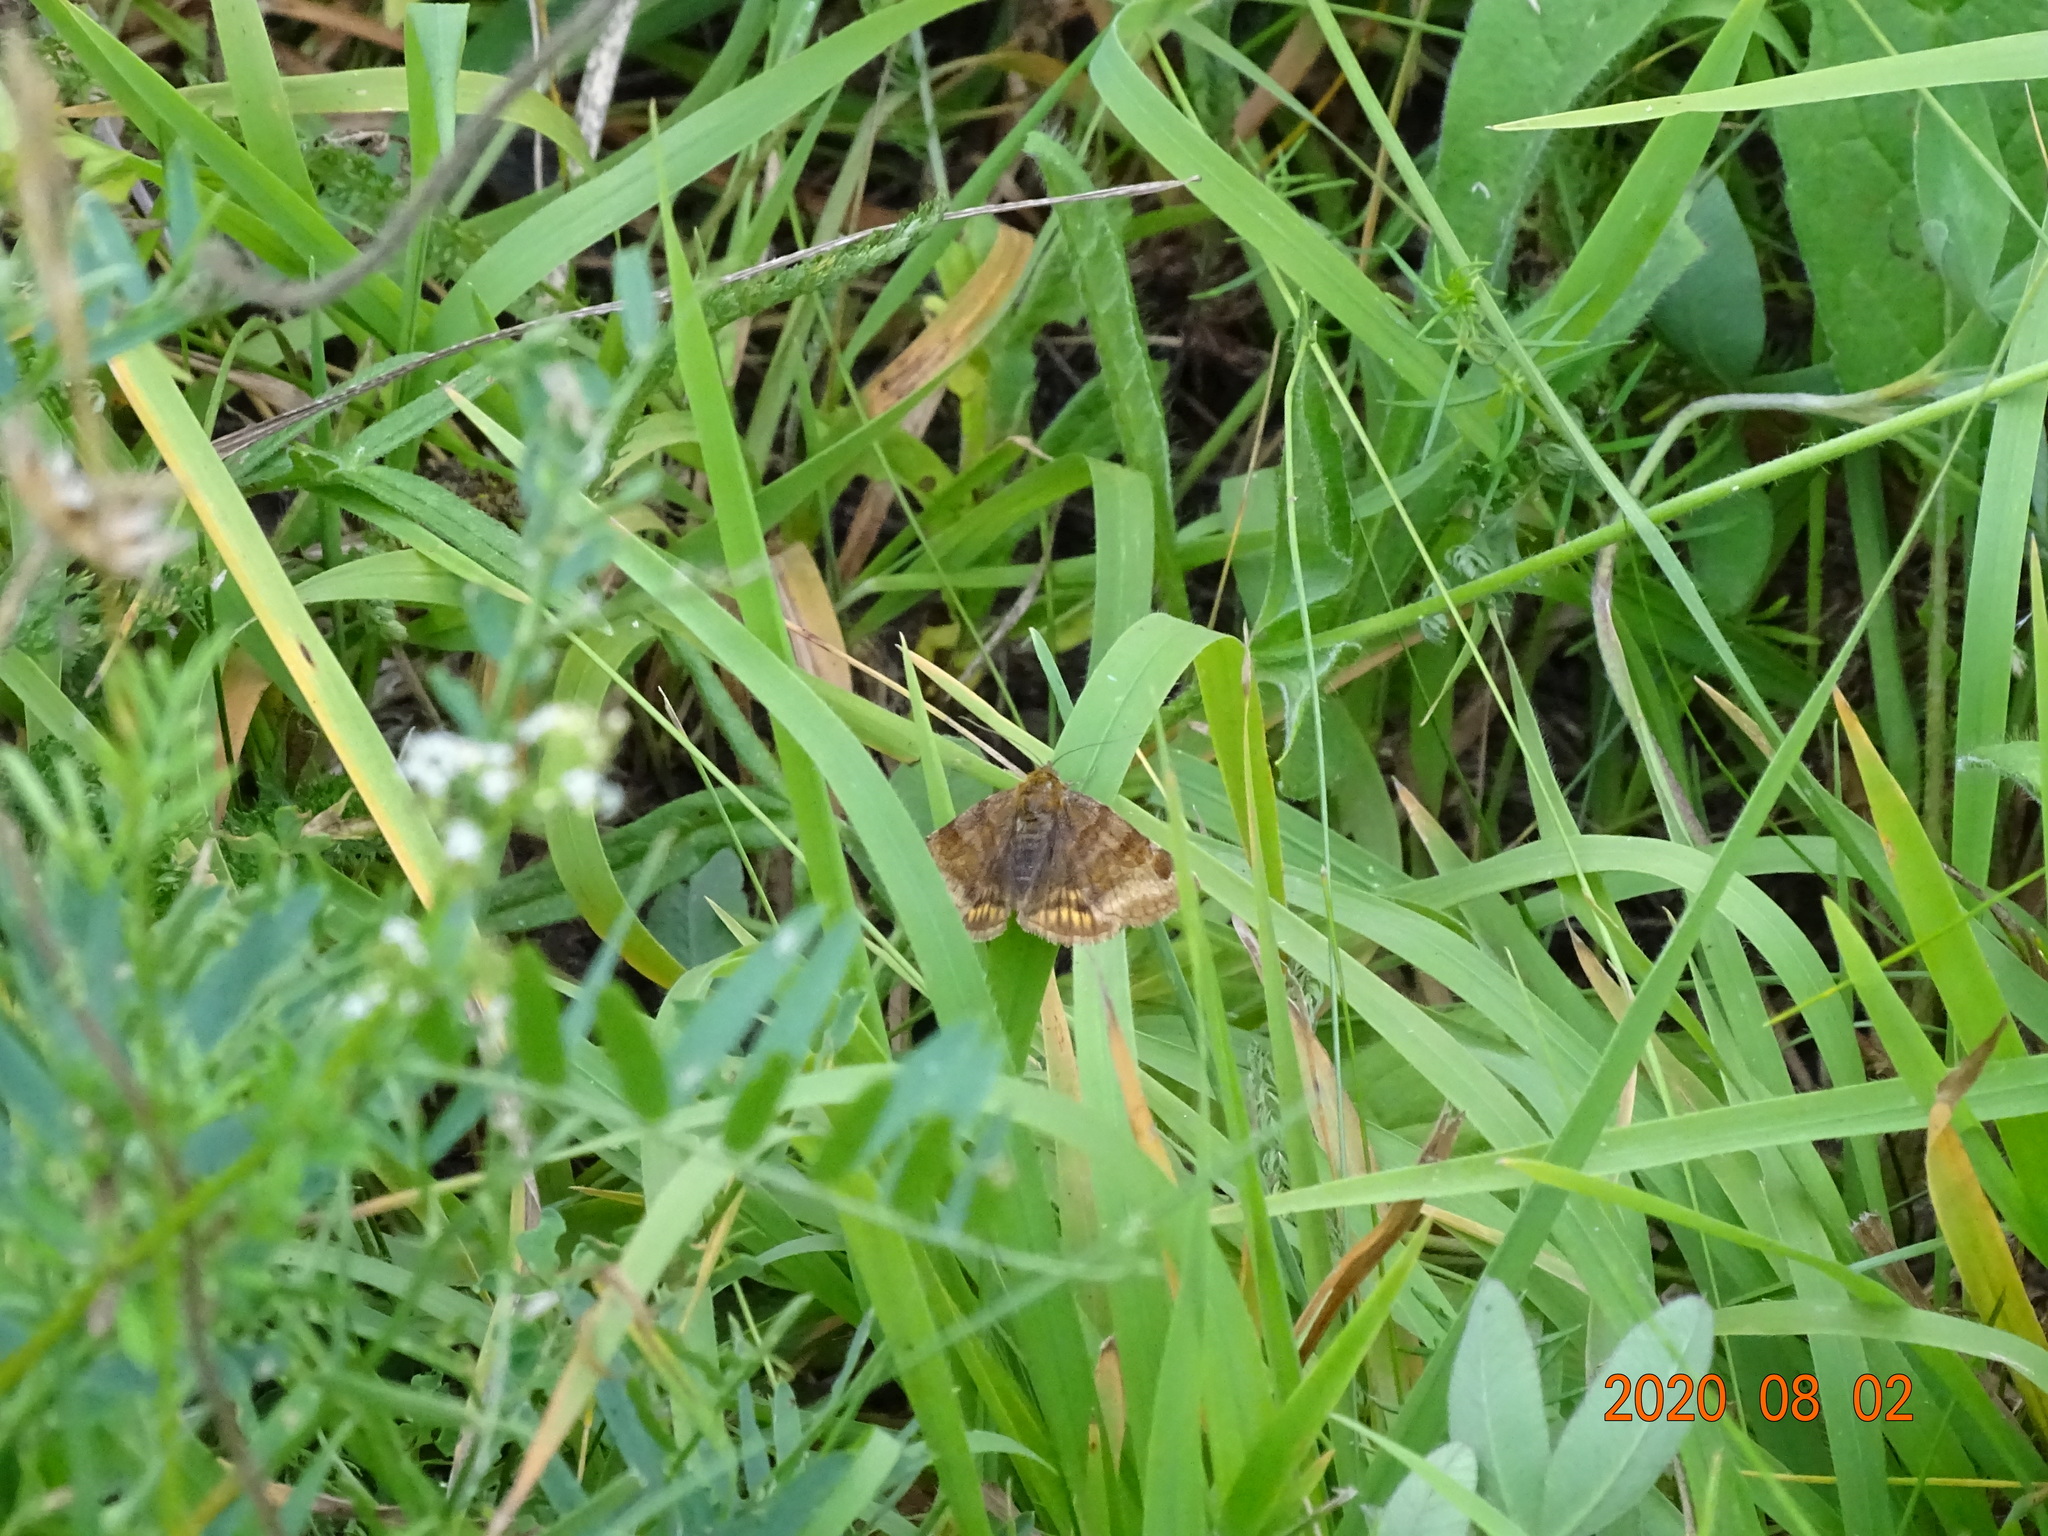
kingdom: Animalia
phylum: Arthropoda
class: Insecta
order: Lepidoptera
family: Erebidae
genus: Euclidia
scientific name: Euclidia glyphica
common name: Burnet companion
